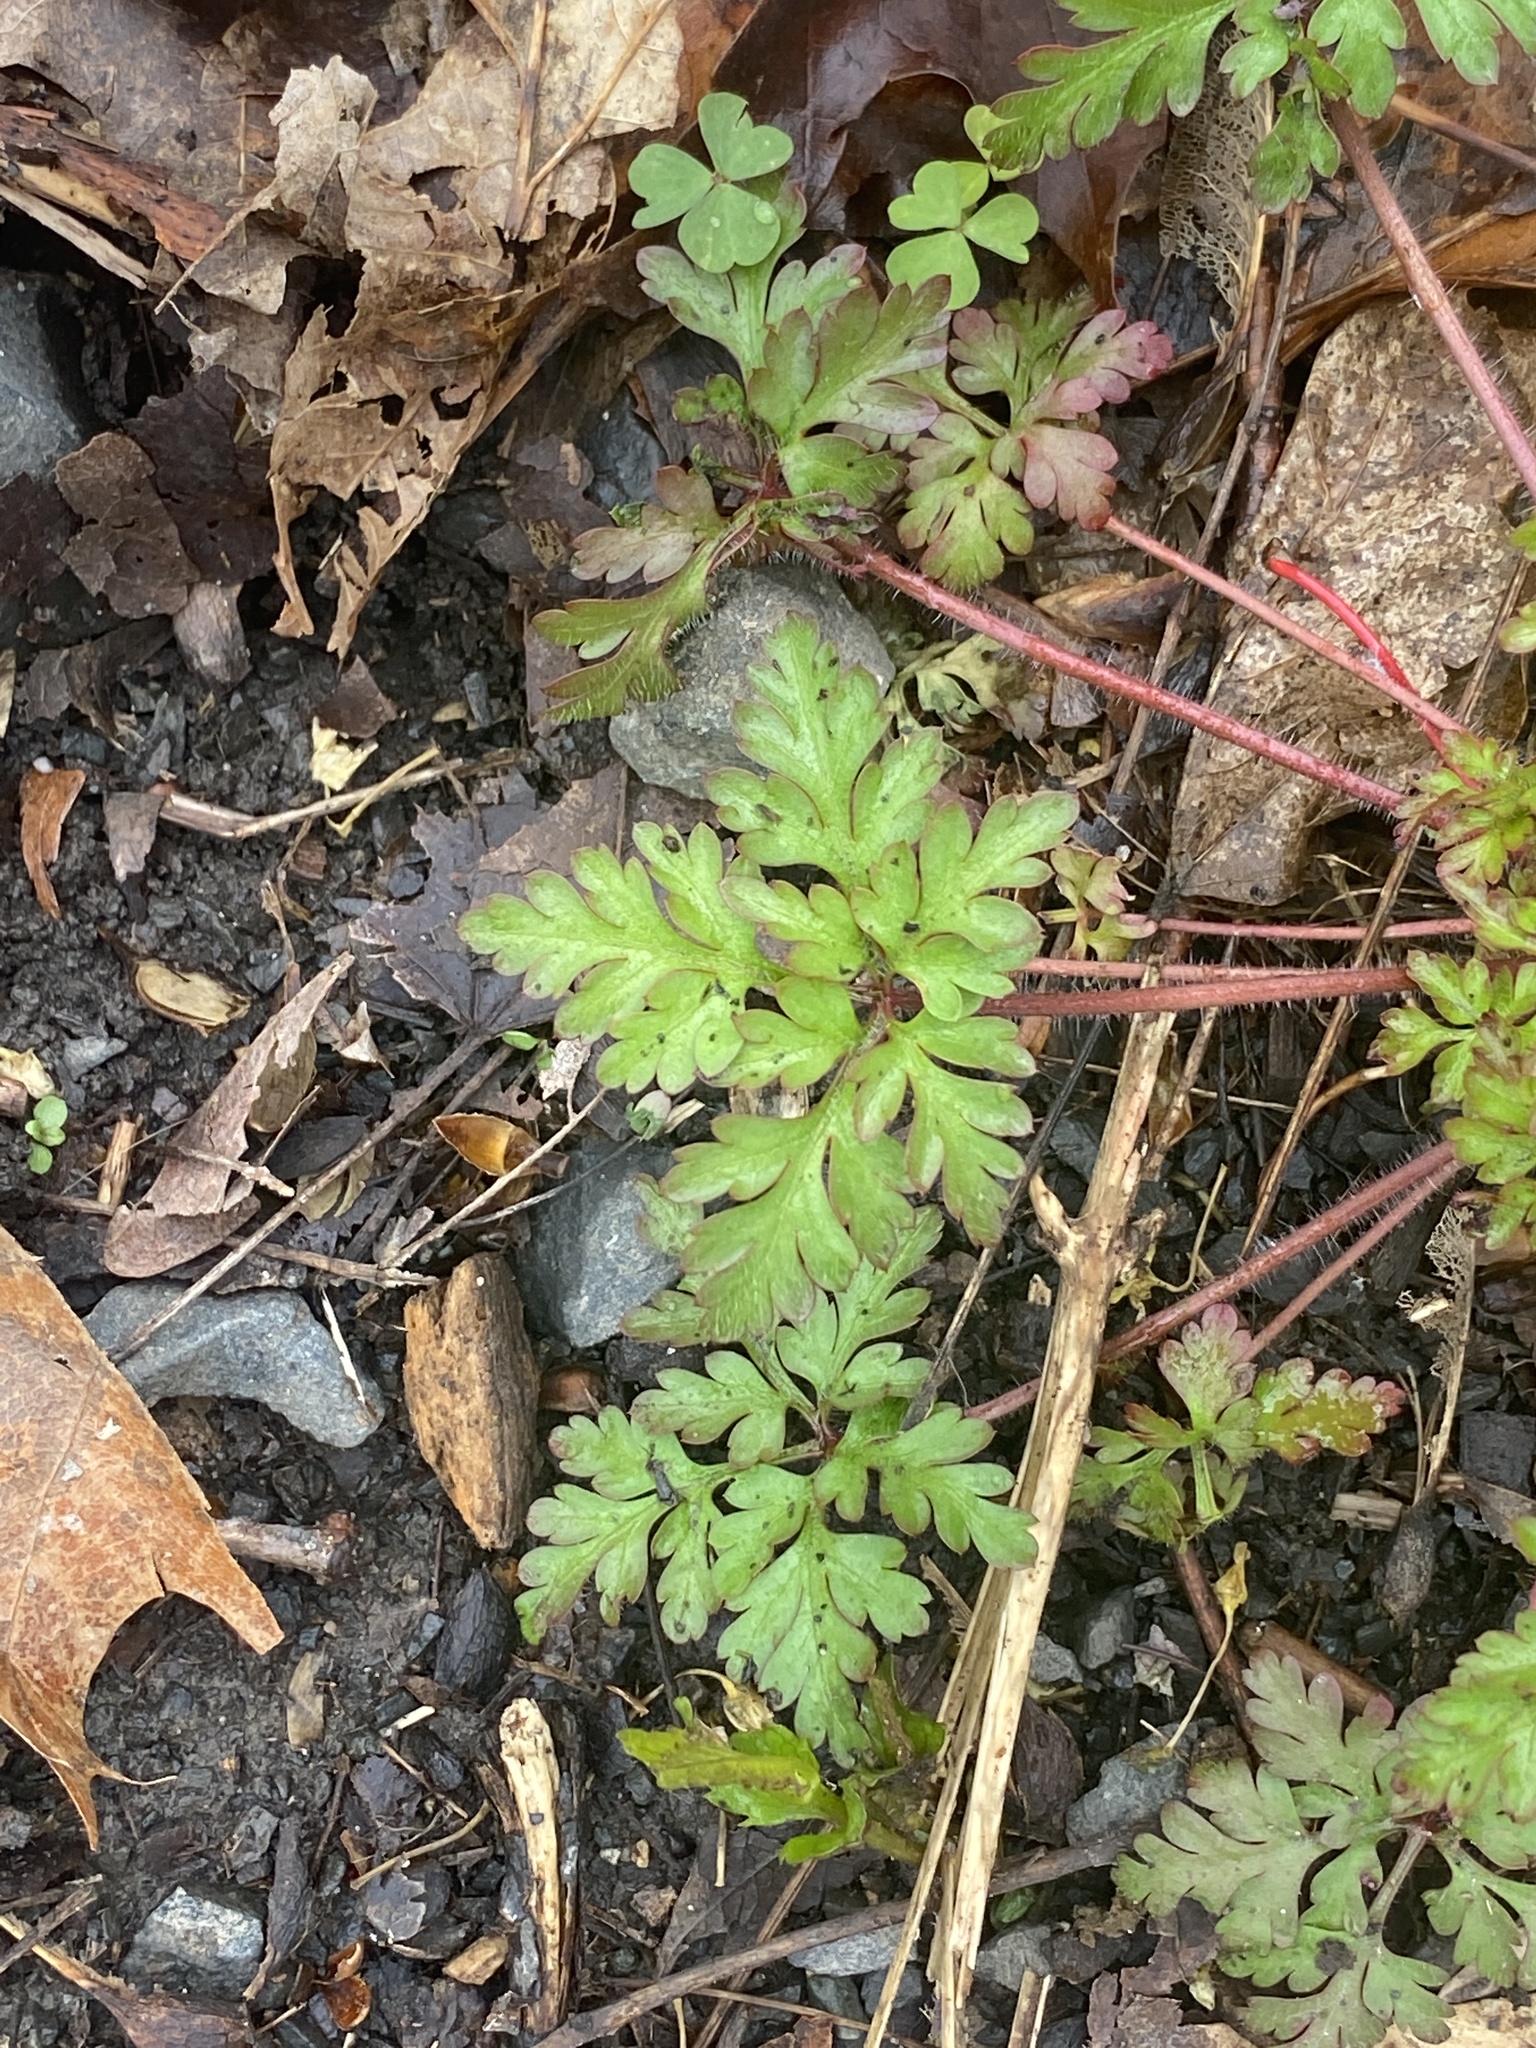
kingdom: Plantae
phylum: Tracheophyta
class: Magnoliopsida
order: Geraniales
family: Geraniaceae
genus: Geranium
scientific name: Geranium robertianum
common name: Herb-robert
